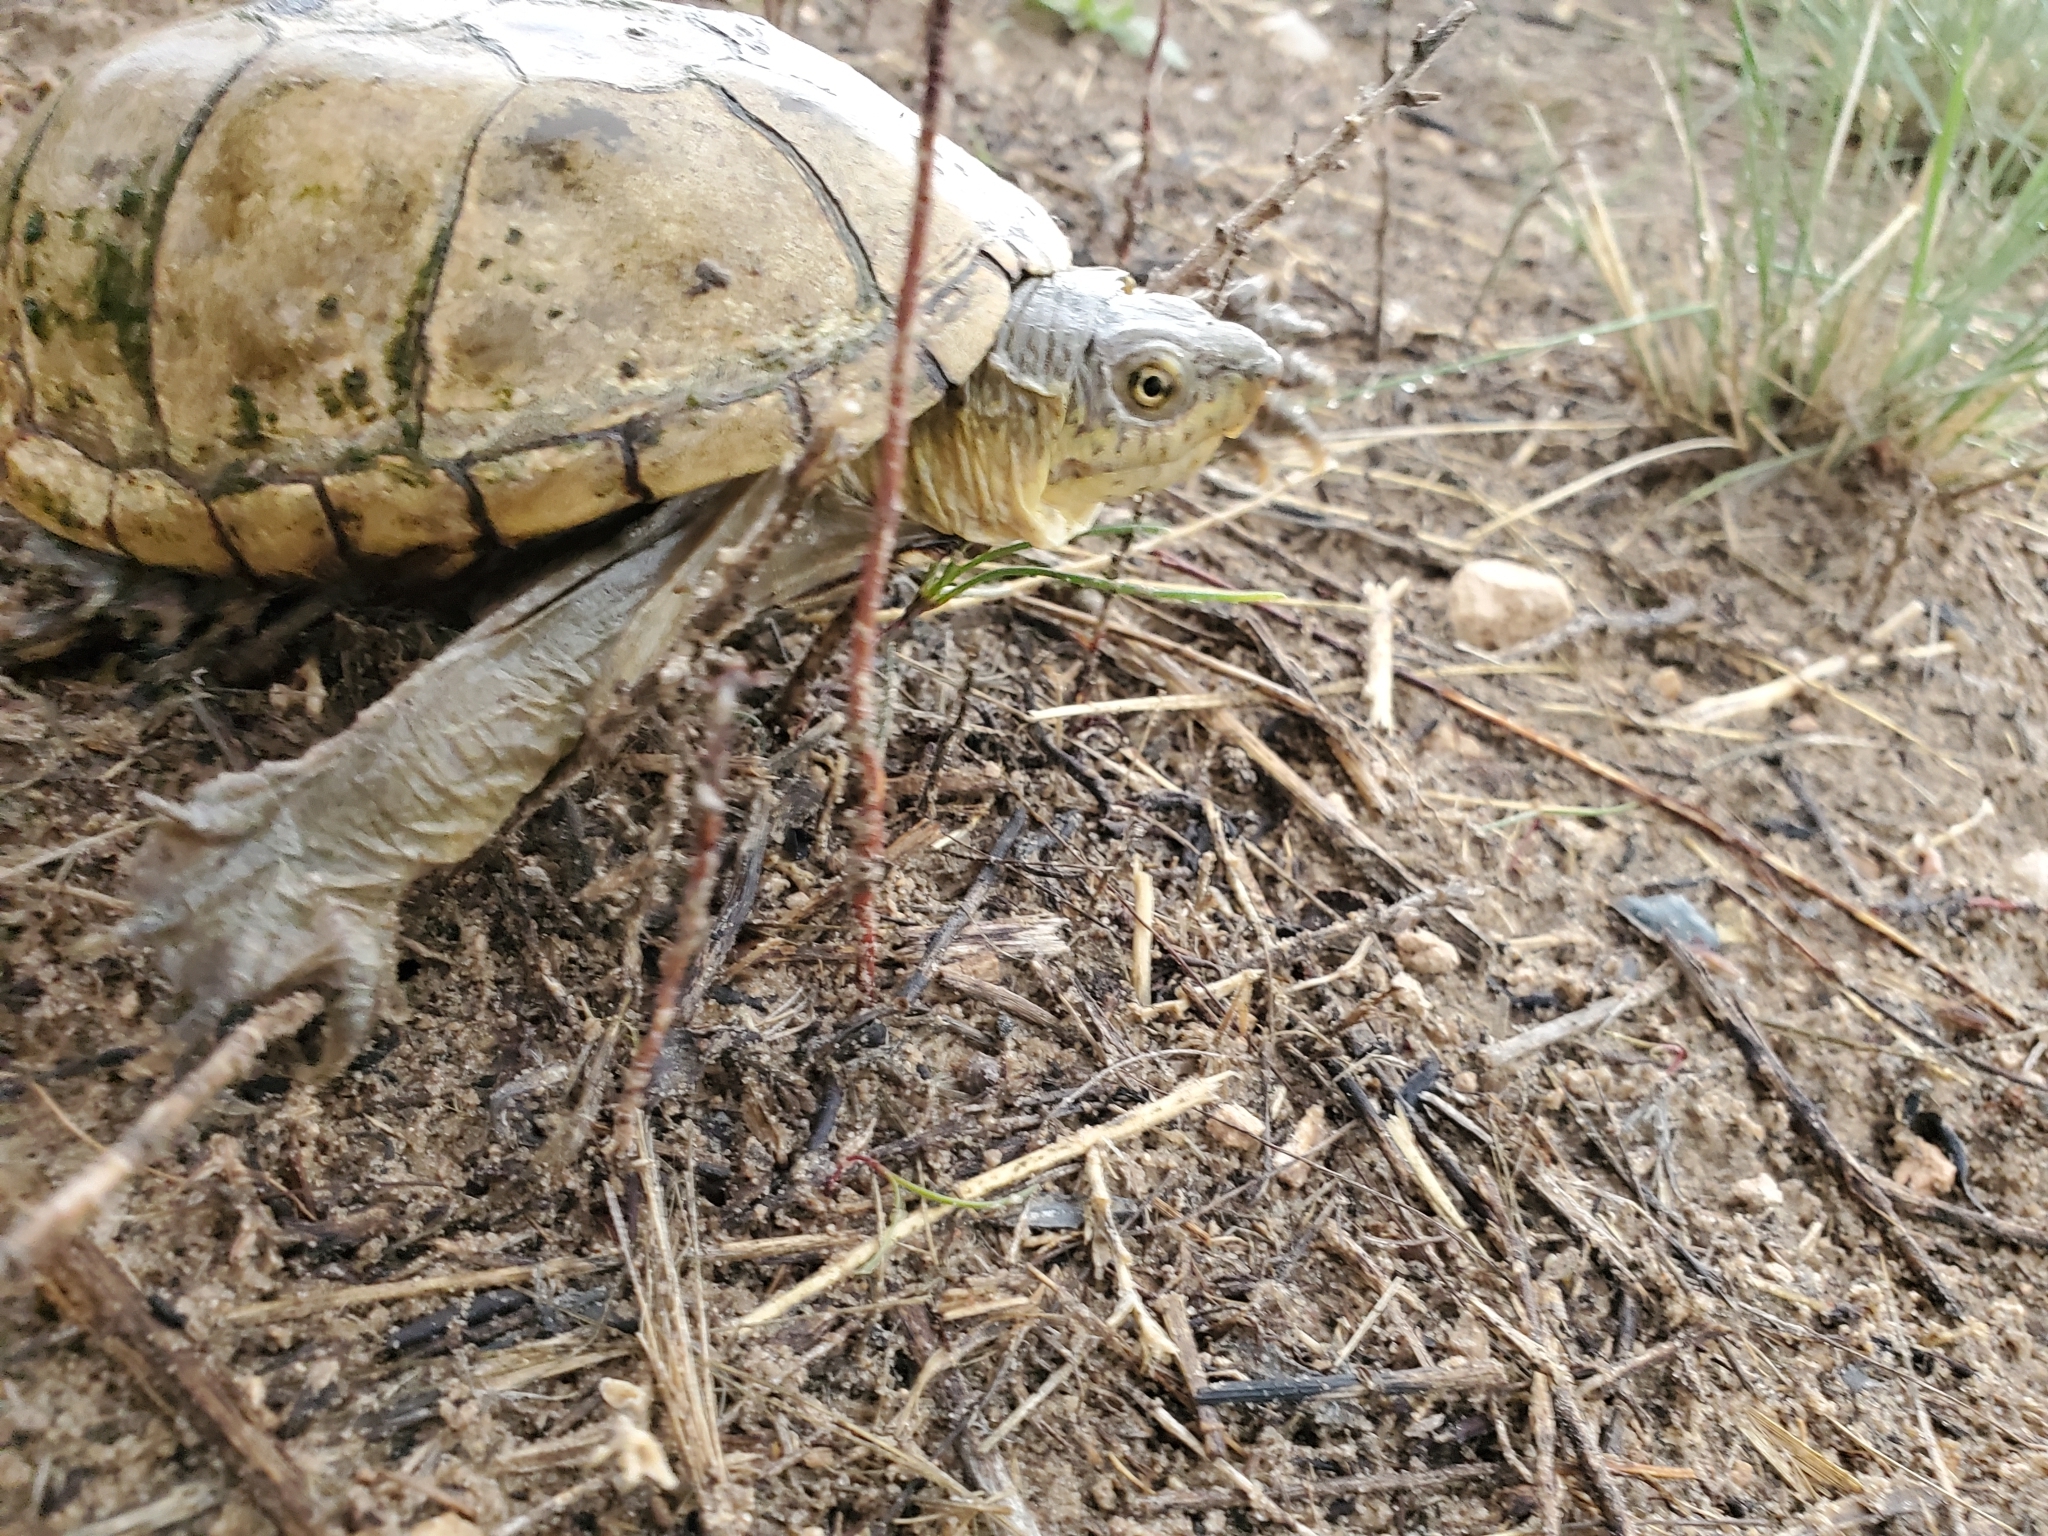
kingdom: Animalia
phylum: Chordata
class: Testudines
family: Kinosternidae
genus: Kinosternon
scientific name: Kinosternon flavescens
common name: Yellow mud turtle
